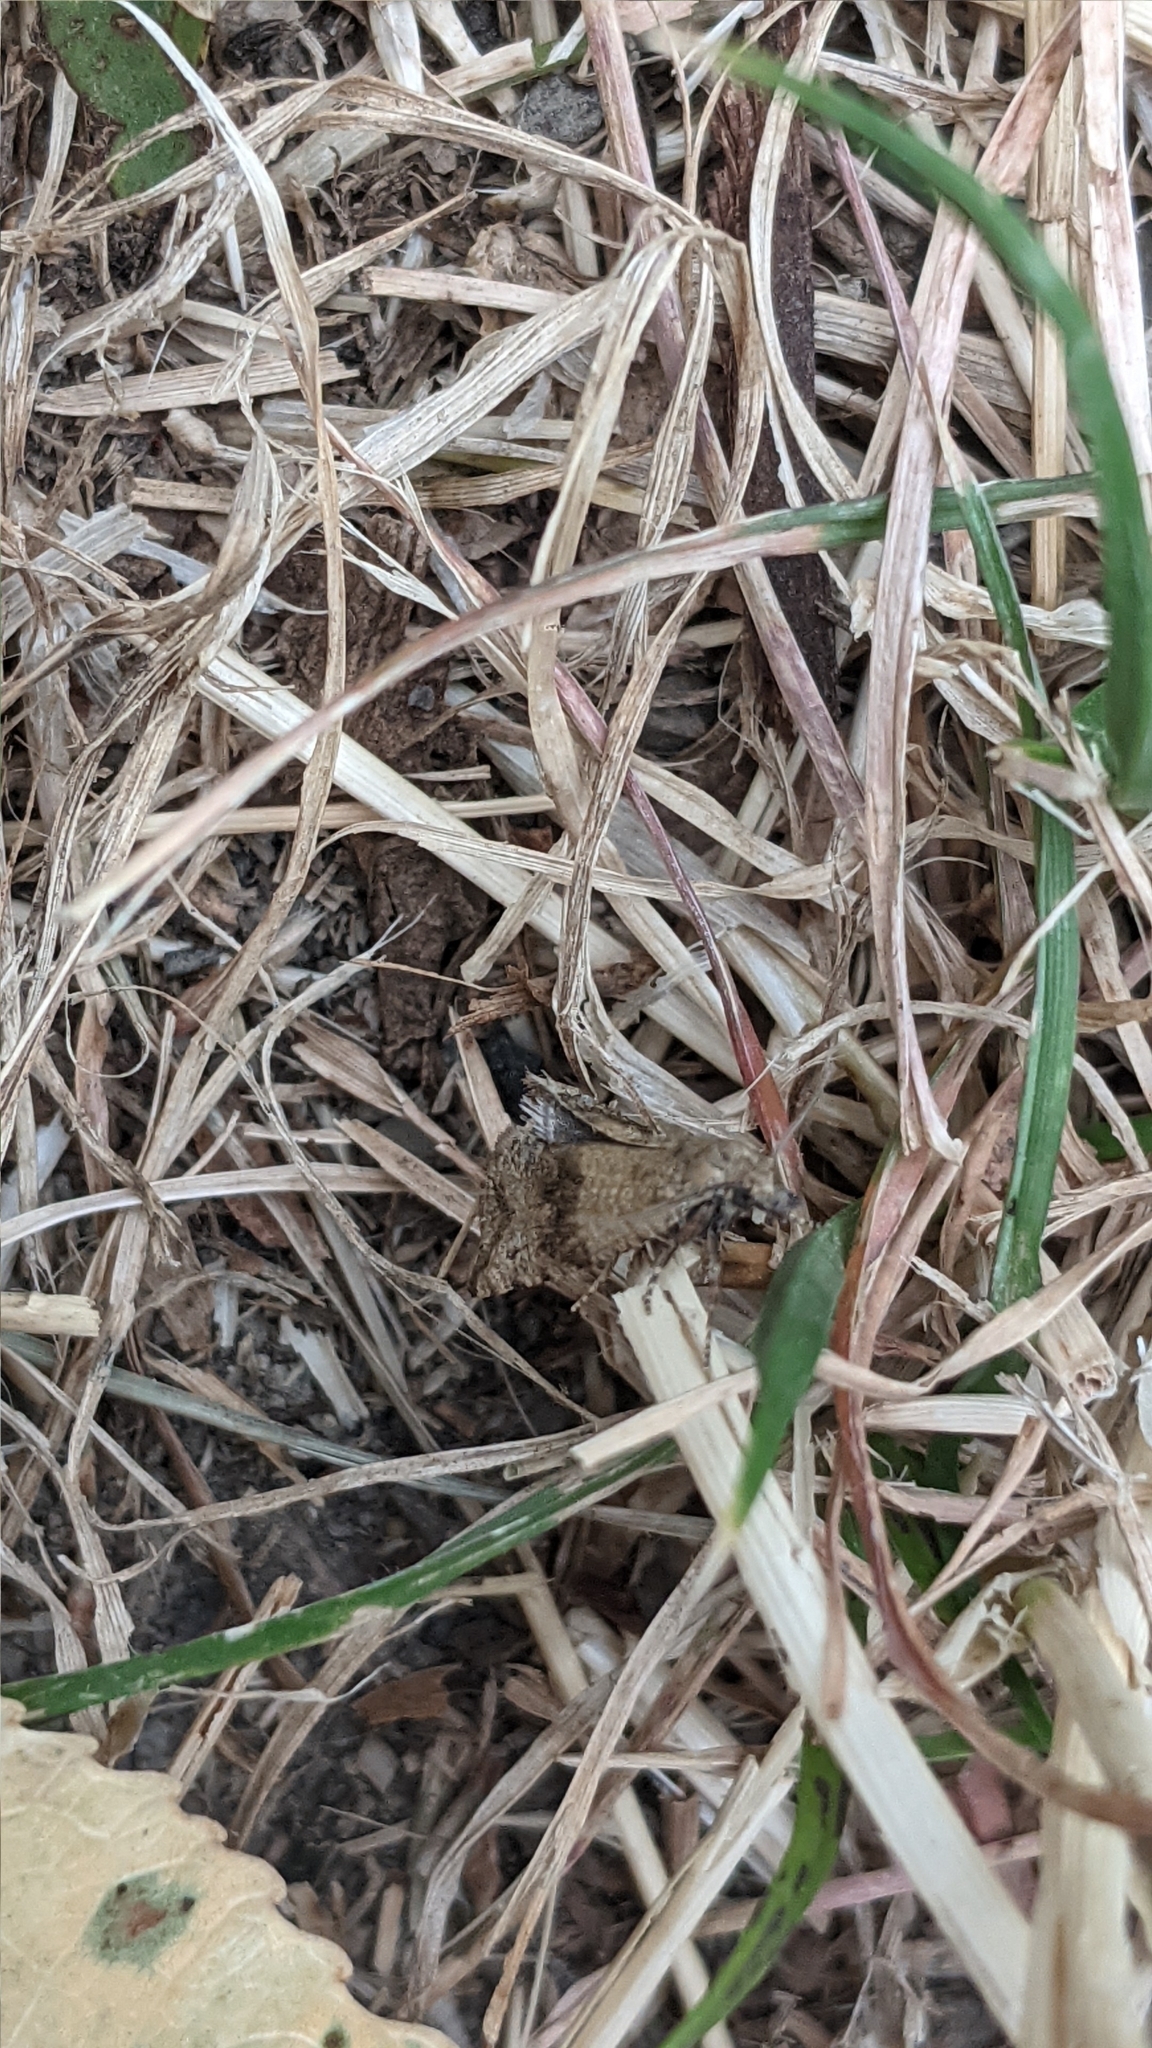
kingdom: Animalia
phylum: Arthropoda
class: Insecta
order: Lepidoptera
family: Tortricidae
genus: Celypha
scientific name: Celypha striana
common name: Barred marble
